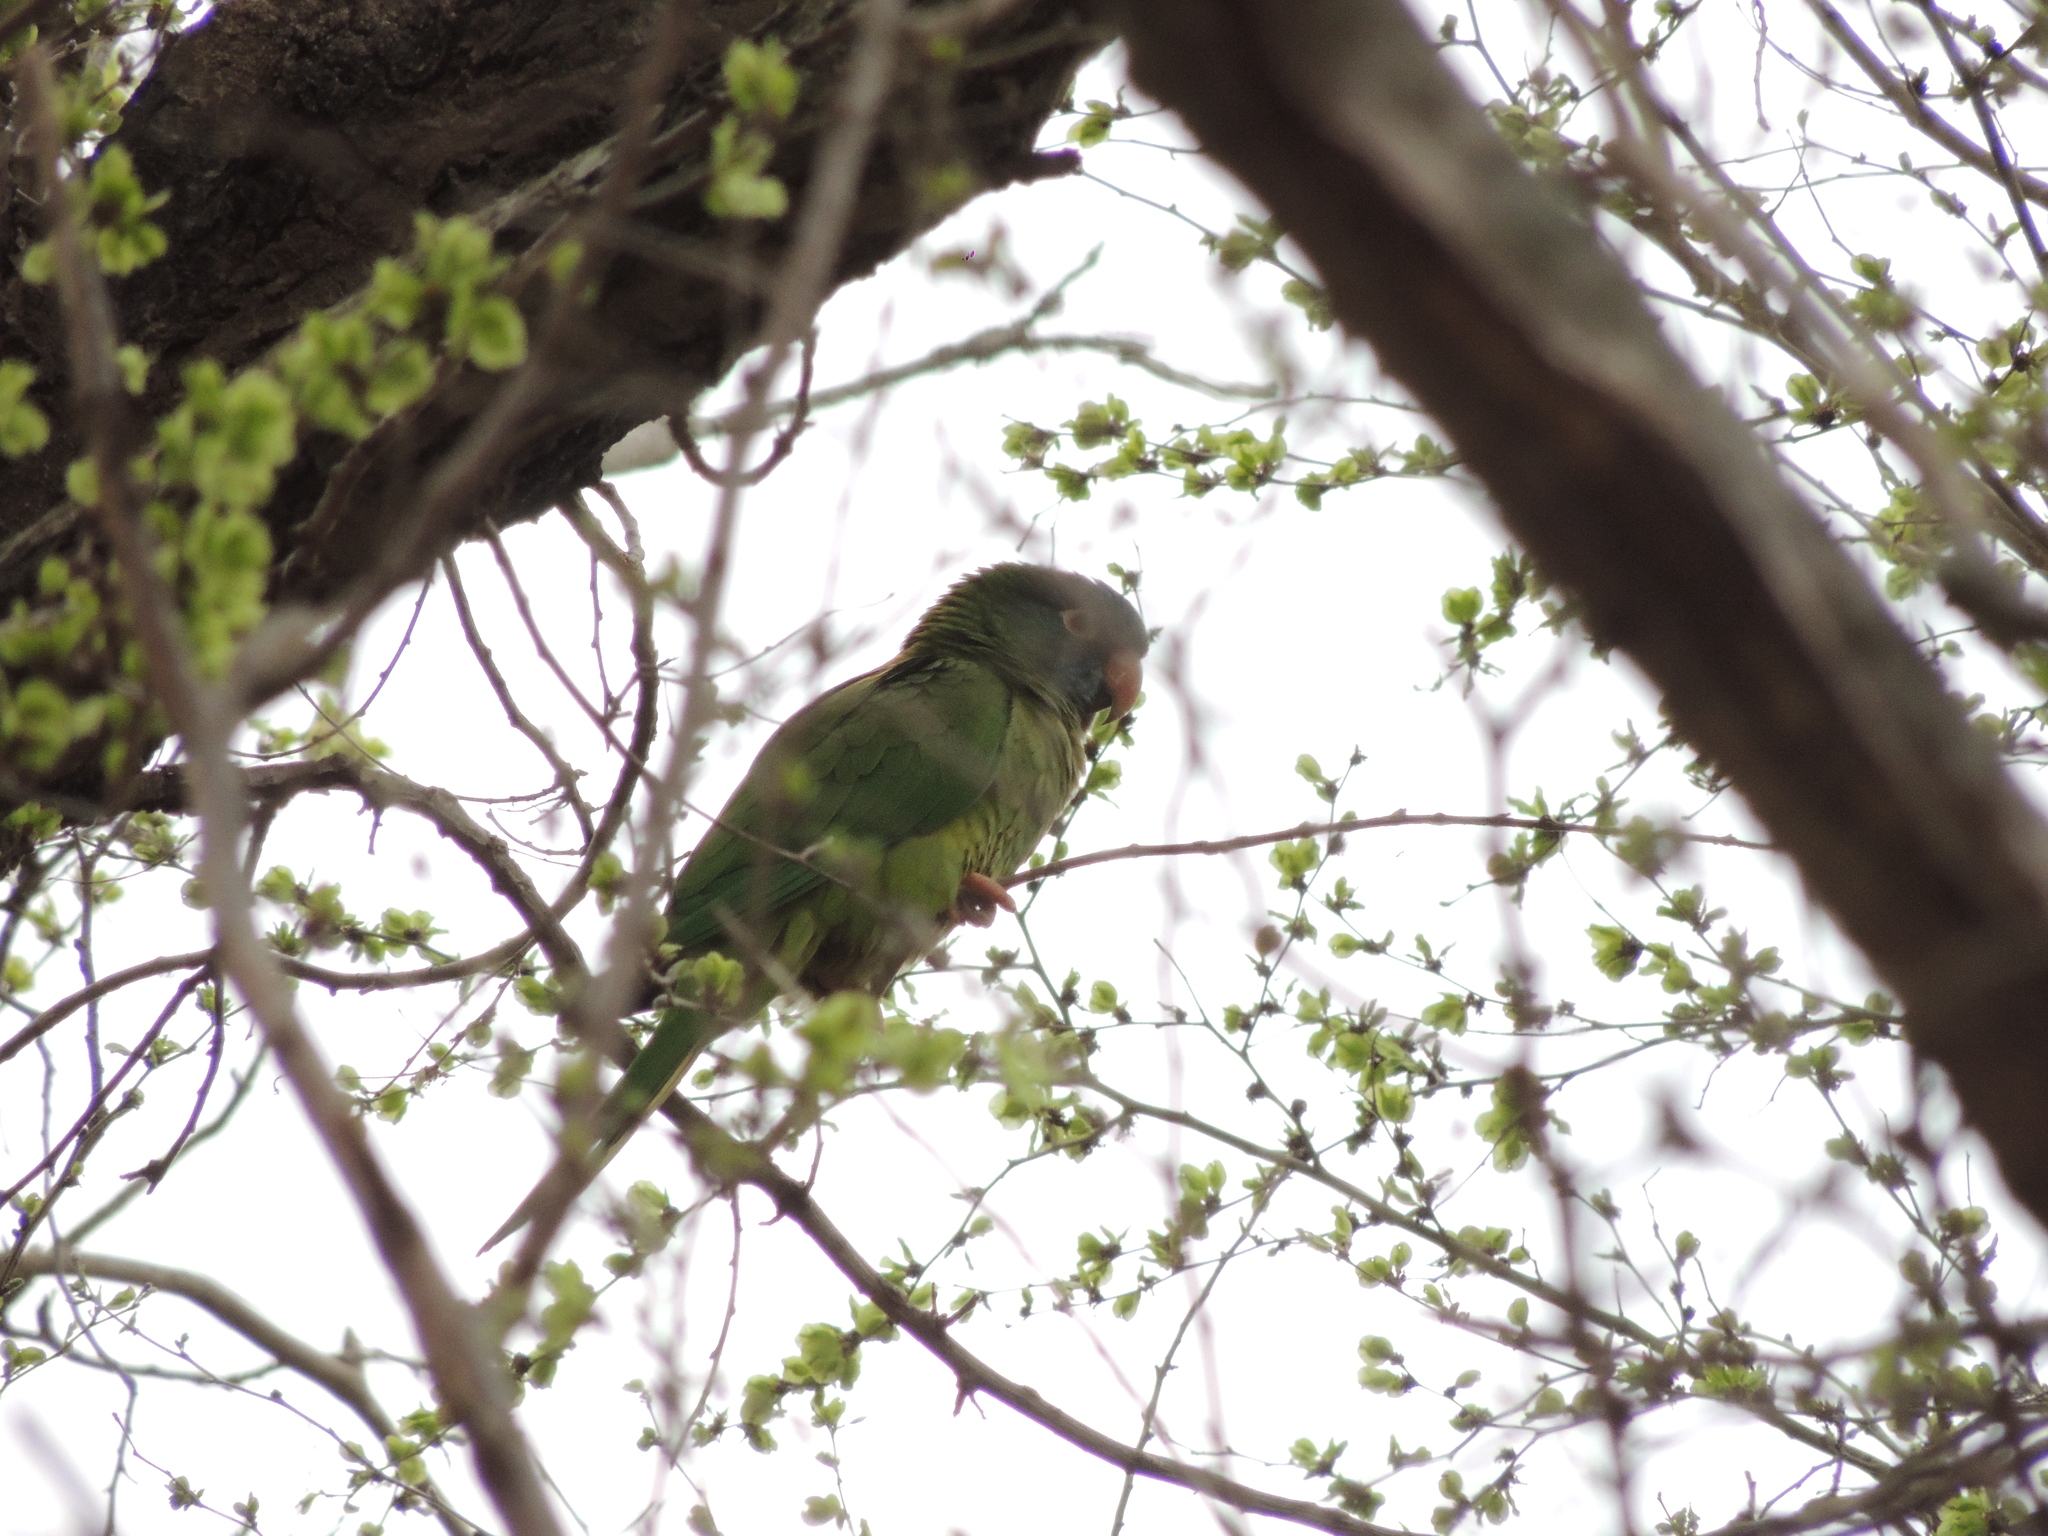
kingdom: Animalia
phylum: Chordata
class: Aves
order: Psittaciformes
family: Psittacidae
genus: Aratinga
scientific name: Aratinga acuticaudata
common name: Blue-crowned parakeet
